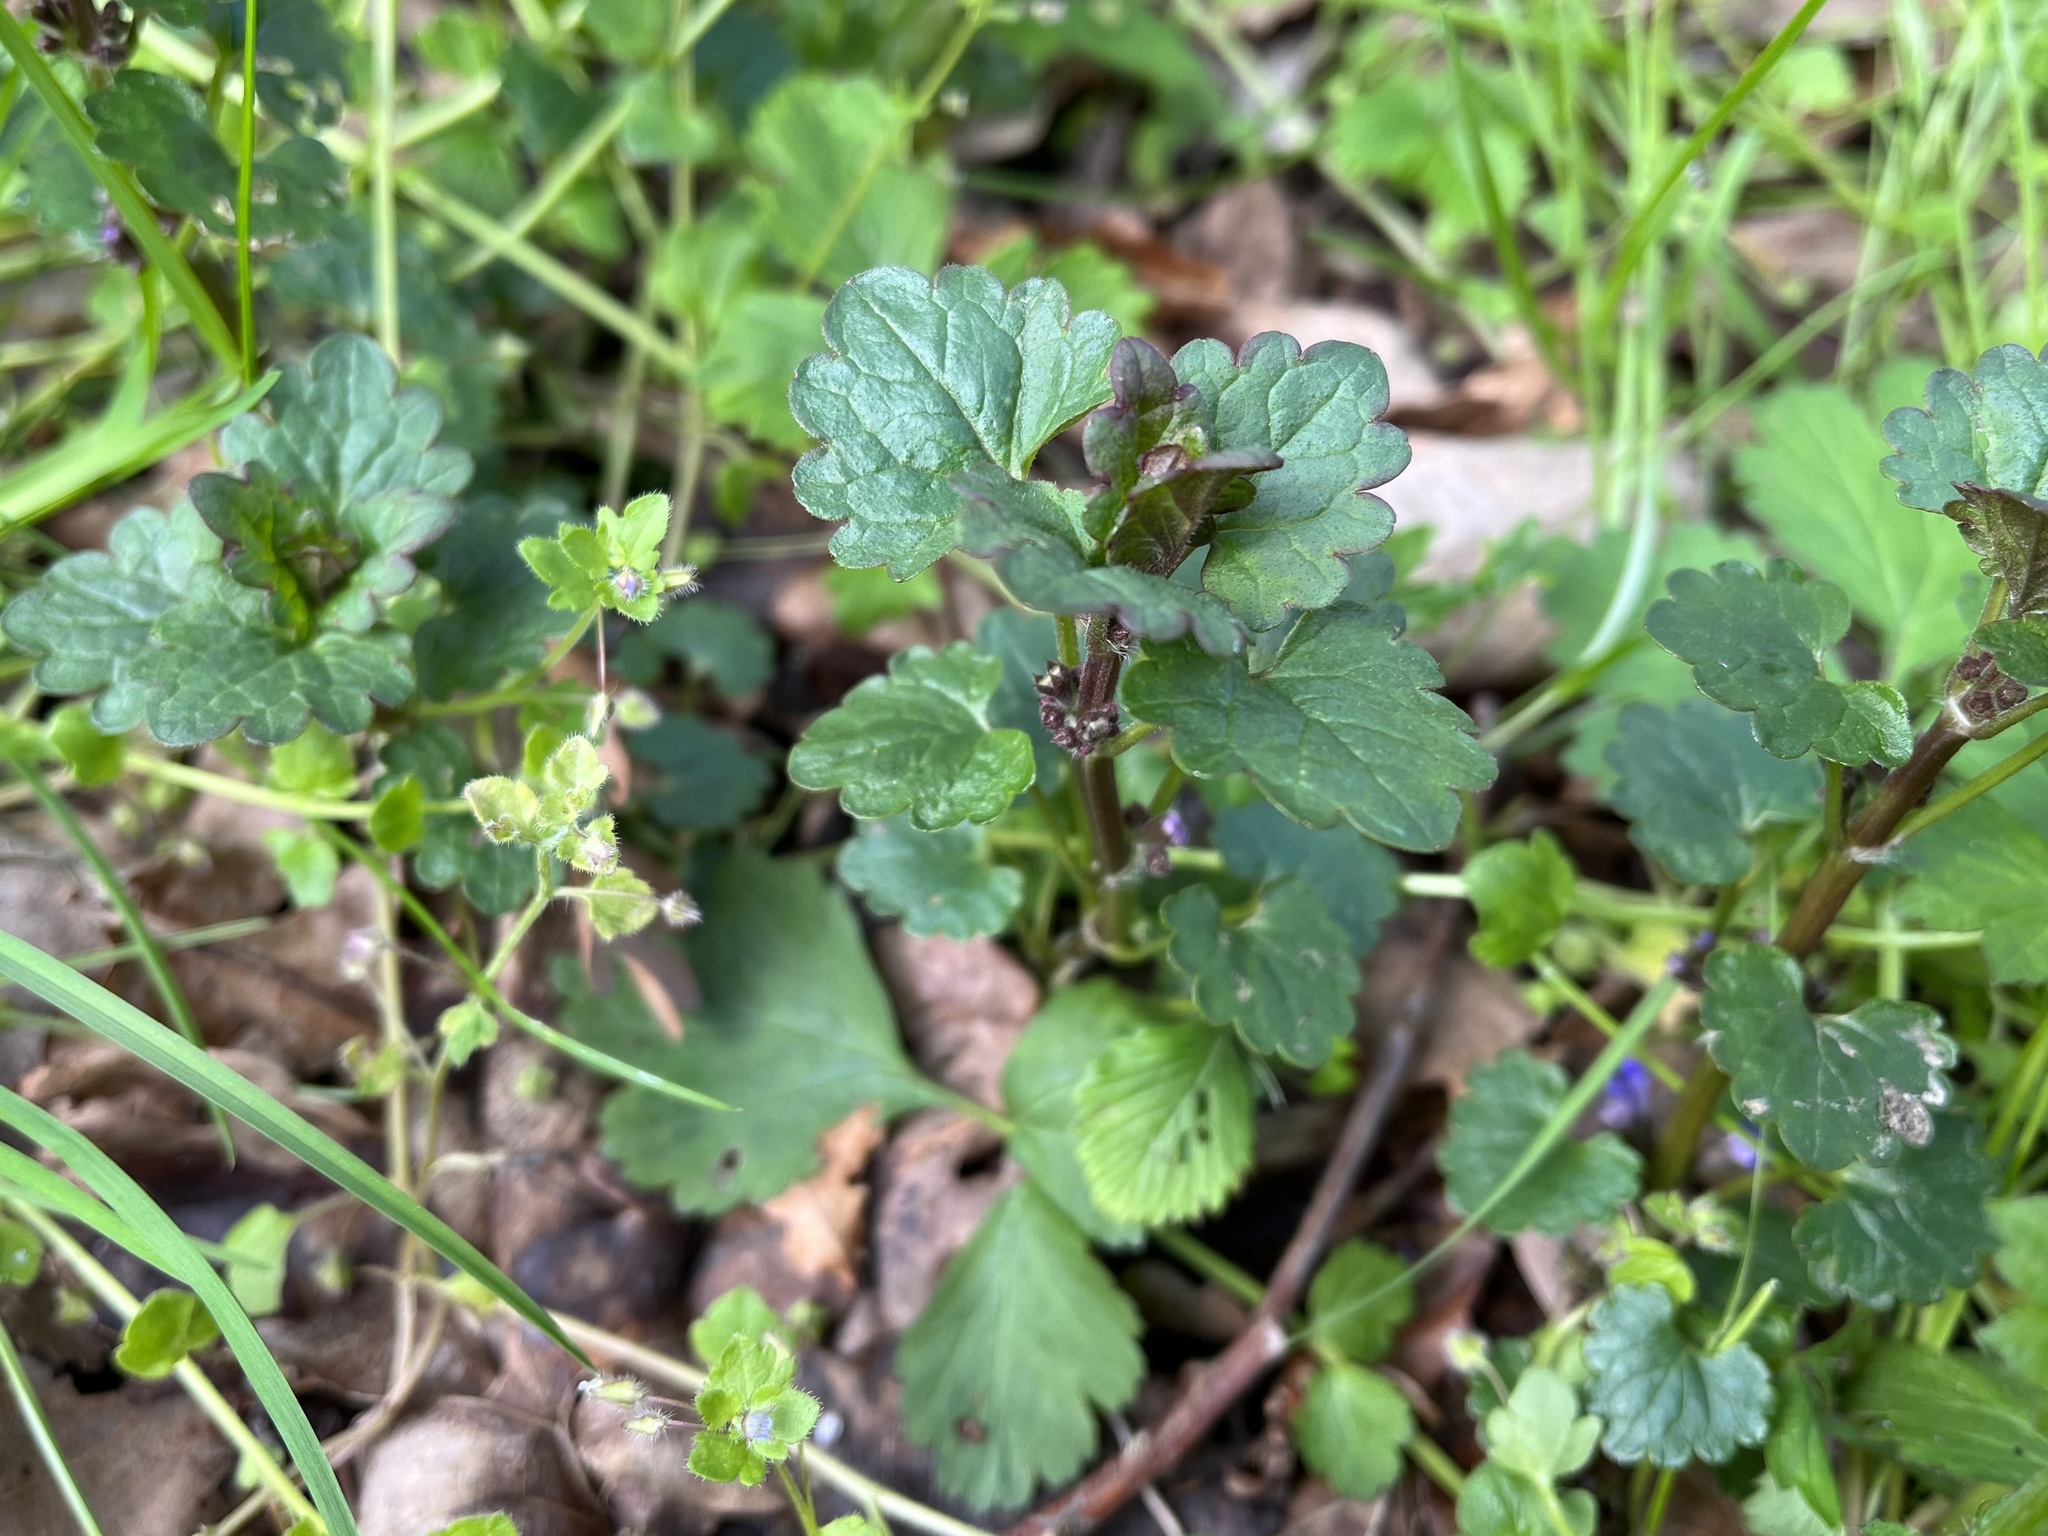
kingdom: Plantae
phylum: Tracheophyta
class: Magnoliopsida
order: Lamiales
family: Lamiaceae
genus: Glechoma
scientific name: Glechoma hederacea
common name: Ground ivy
